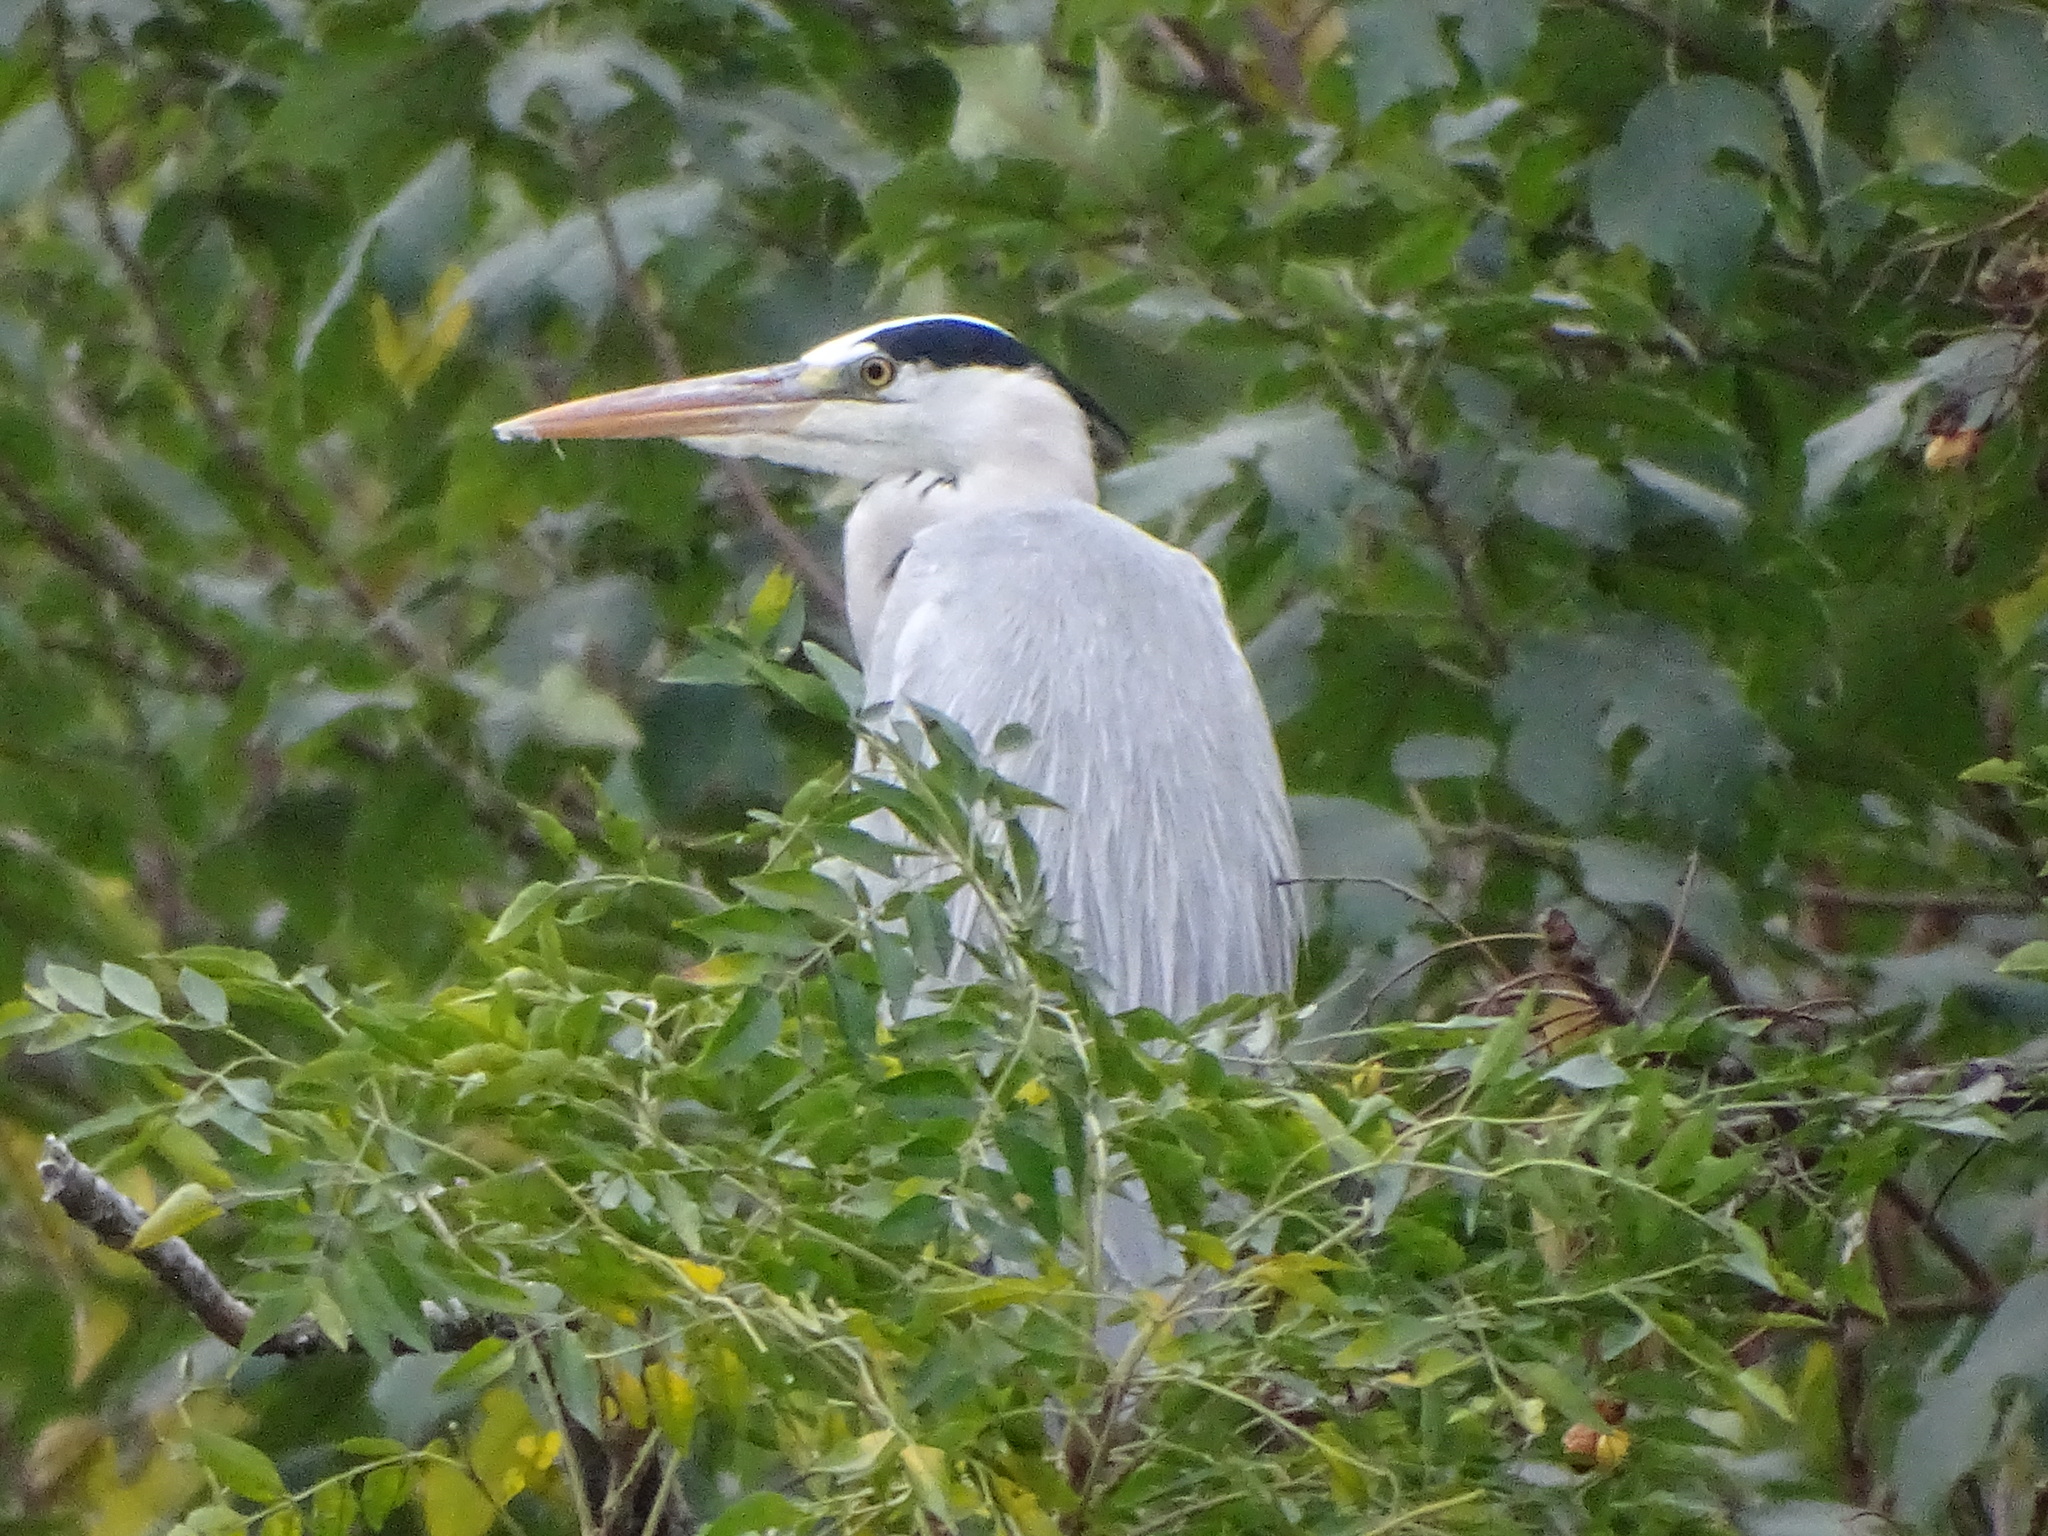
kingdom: Animalia
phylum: Chordata
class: Aves
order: Pelecaniformes
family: Ardeidae
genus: Ardea
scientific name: Ardea cinerea
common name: Grey heron
